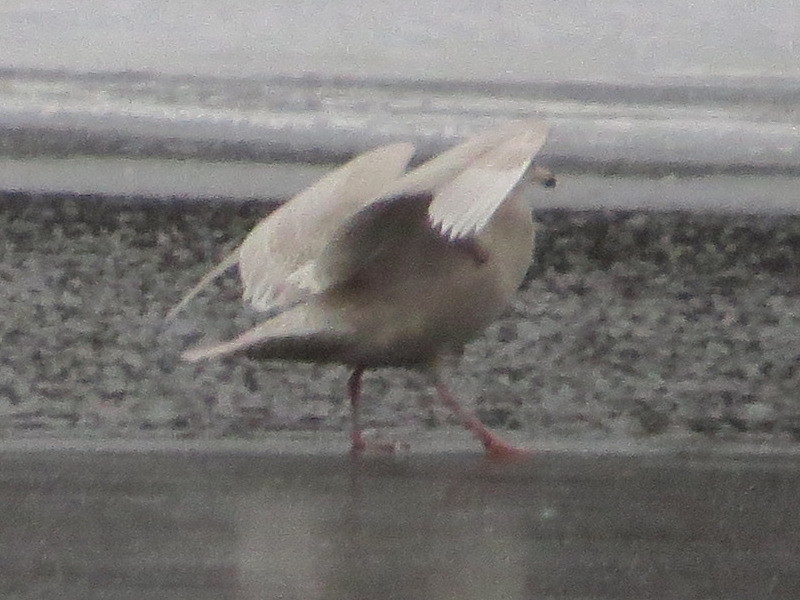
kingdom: Animalia
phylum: Chordata
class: Aves
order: Charadriiformes
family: Laridae
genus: Larus
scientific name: Larus hyperboreus
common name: Glaucous gull
